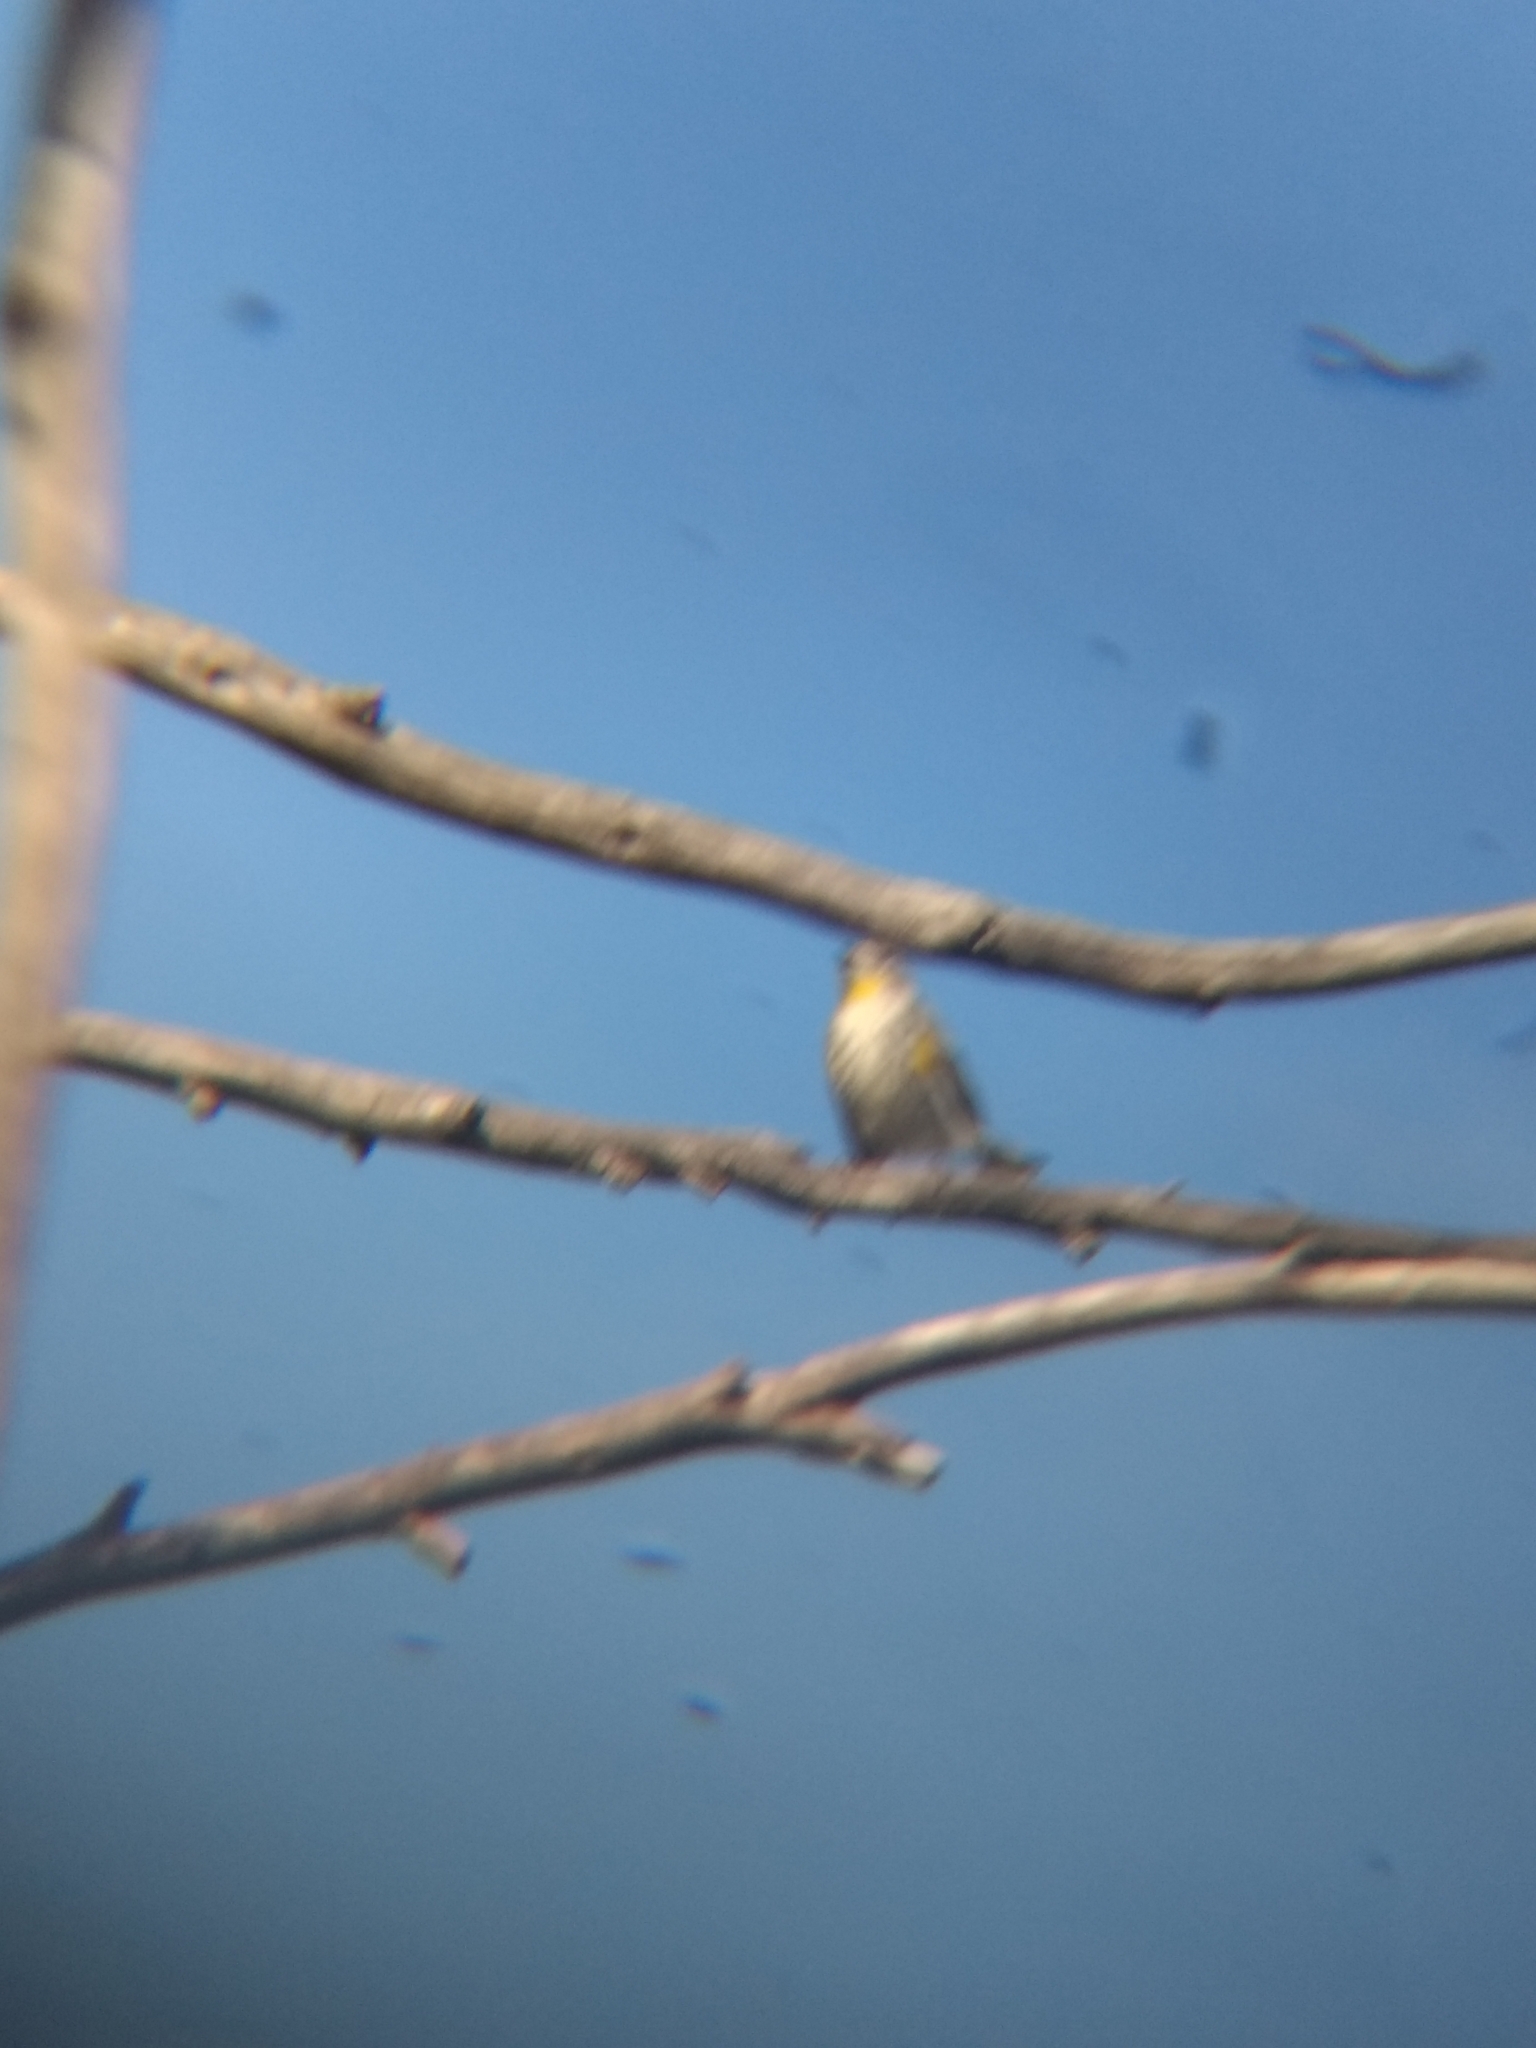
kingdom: Animalia
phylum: Chordata
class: Aves
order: Passeriformes
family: Parulidae
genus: Setophaga
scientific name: Setophaga coronata
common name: Myrtle warbler
